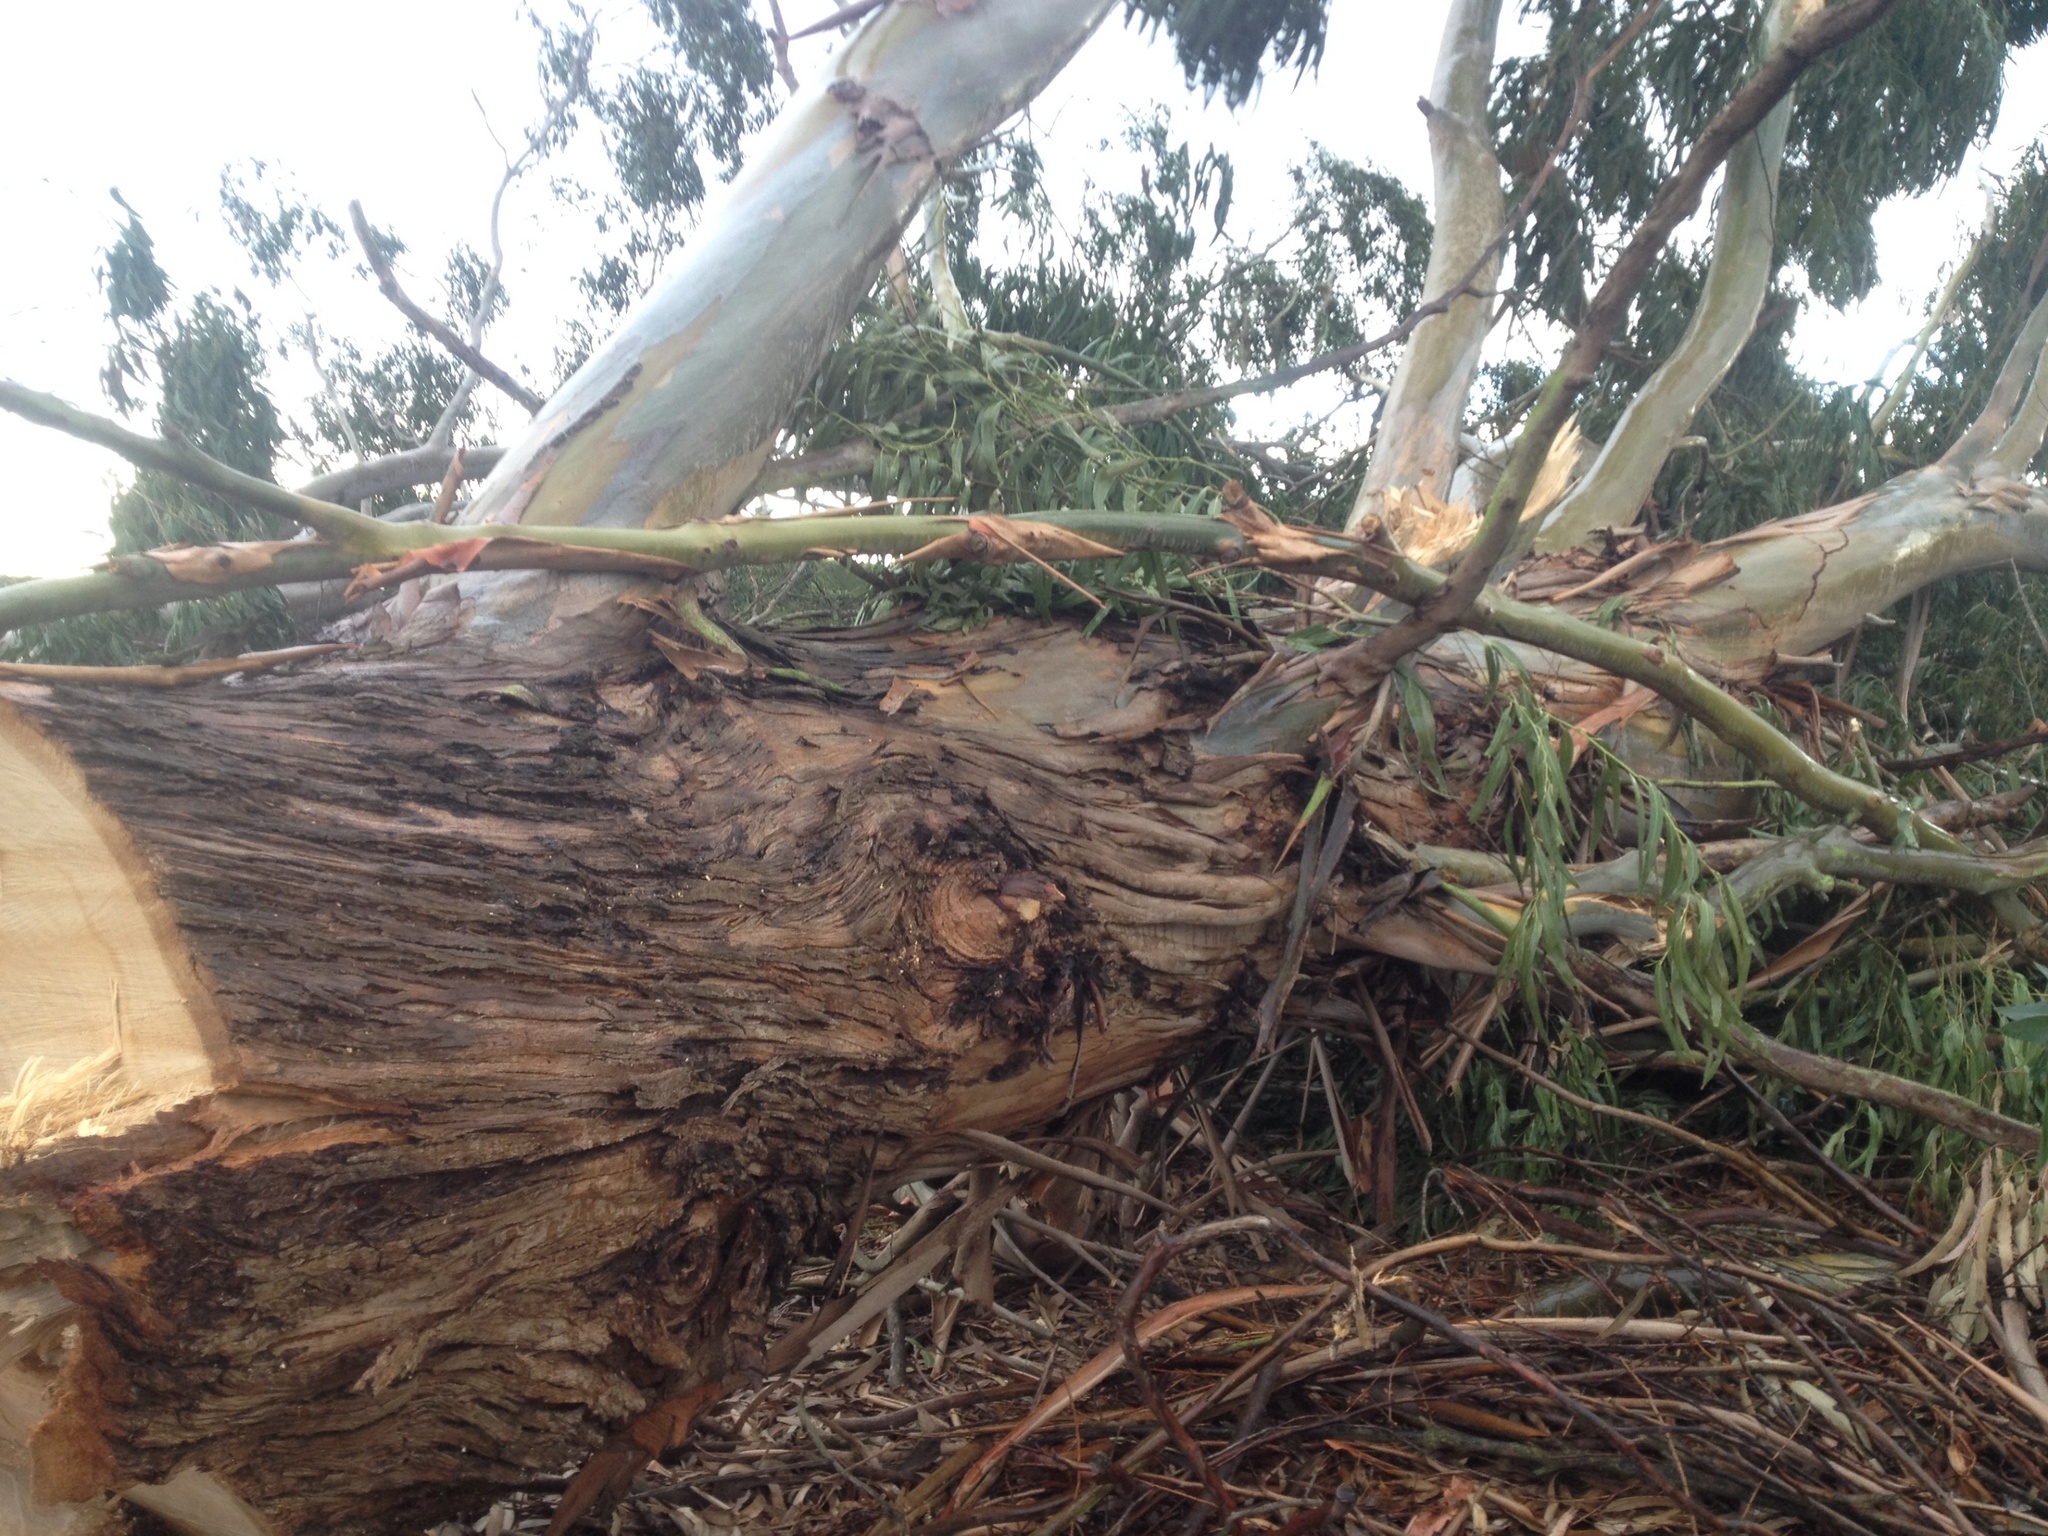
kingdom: Plantae
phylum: Tracheophyta
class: Magnoliopsida
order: Myrtales
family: Myrtaceae
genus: Eucalyptus
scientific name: Eucalyptus nitens
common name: Shining-gum
